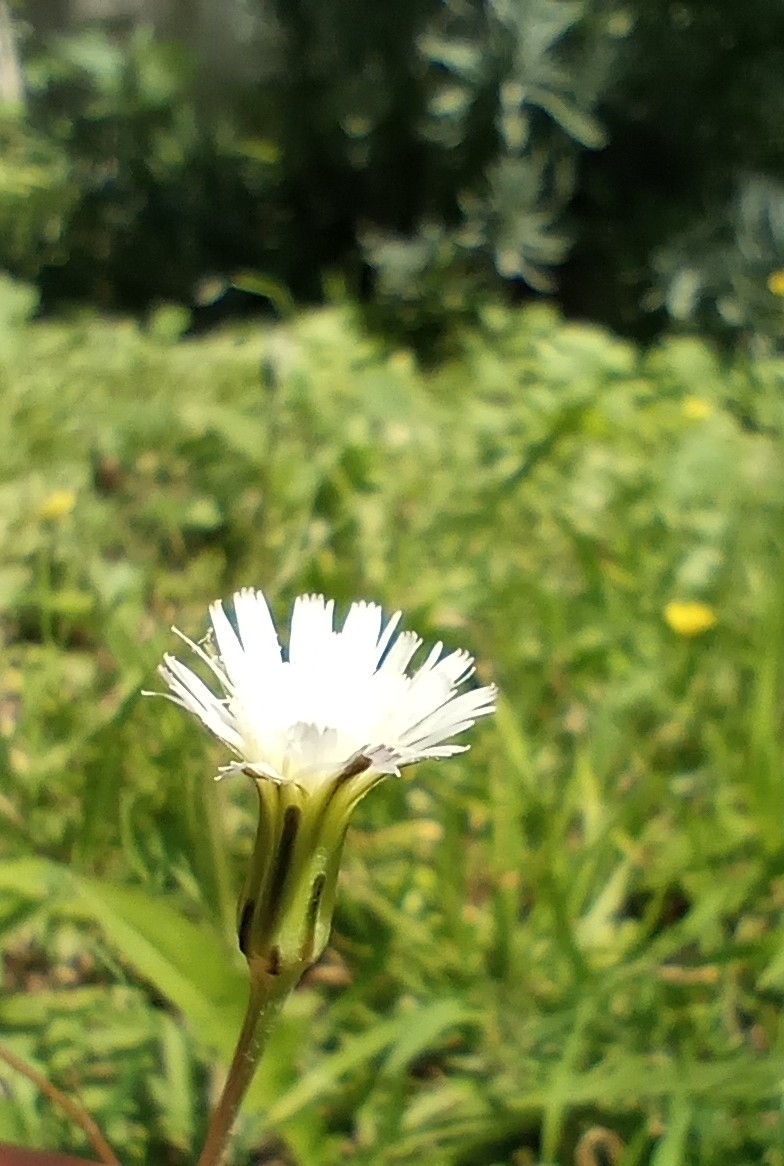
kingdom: Plantae
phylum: Tracheophyta
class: Magnoliopsida
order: Asterales
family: Asteraceae
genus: Hypochaeris
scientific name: Hypochaeris albiflora
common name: White flatweed
